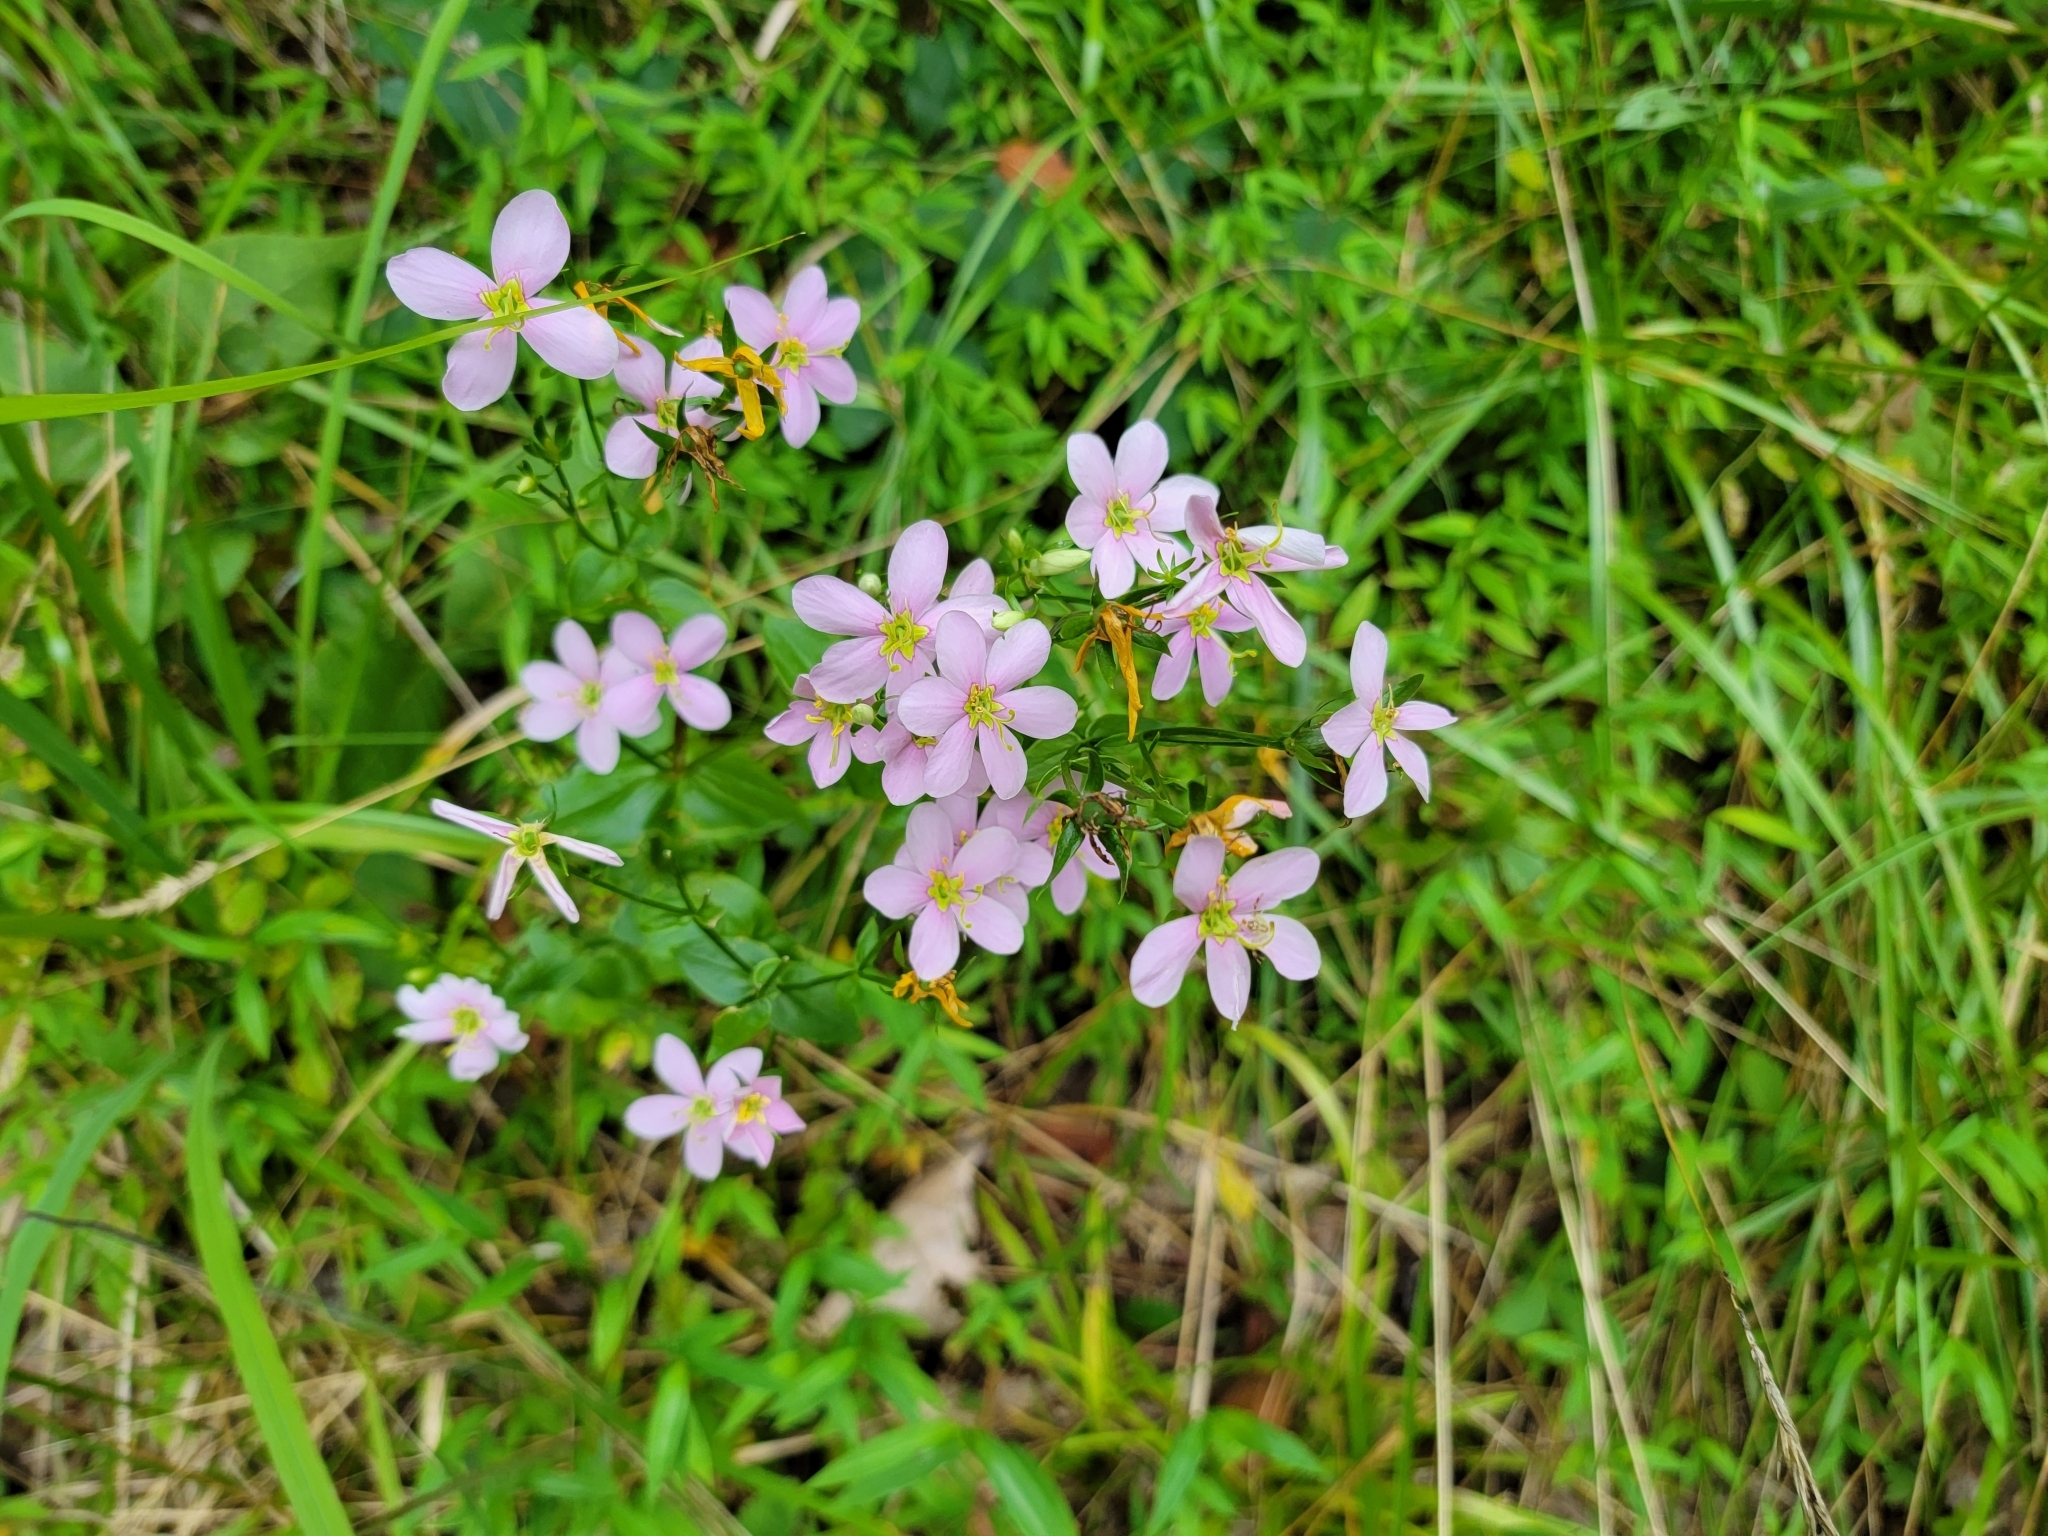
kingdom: Plantae
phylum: Tracheophyta
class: Magnoliopsida
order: Gentianales
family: Gentianaceae
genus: Sabatia
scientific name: Sabatia angularis
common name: Rose-pink
